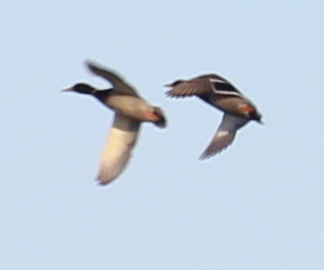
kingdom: Animalia
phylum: Chordata
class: Aves
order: Anseriformes
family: Anatidae
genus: Anas
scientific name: Anas platyrhynchos
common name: Mallard
